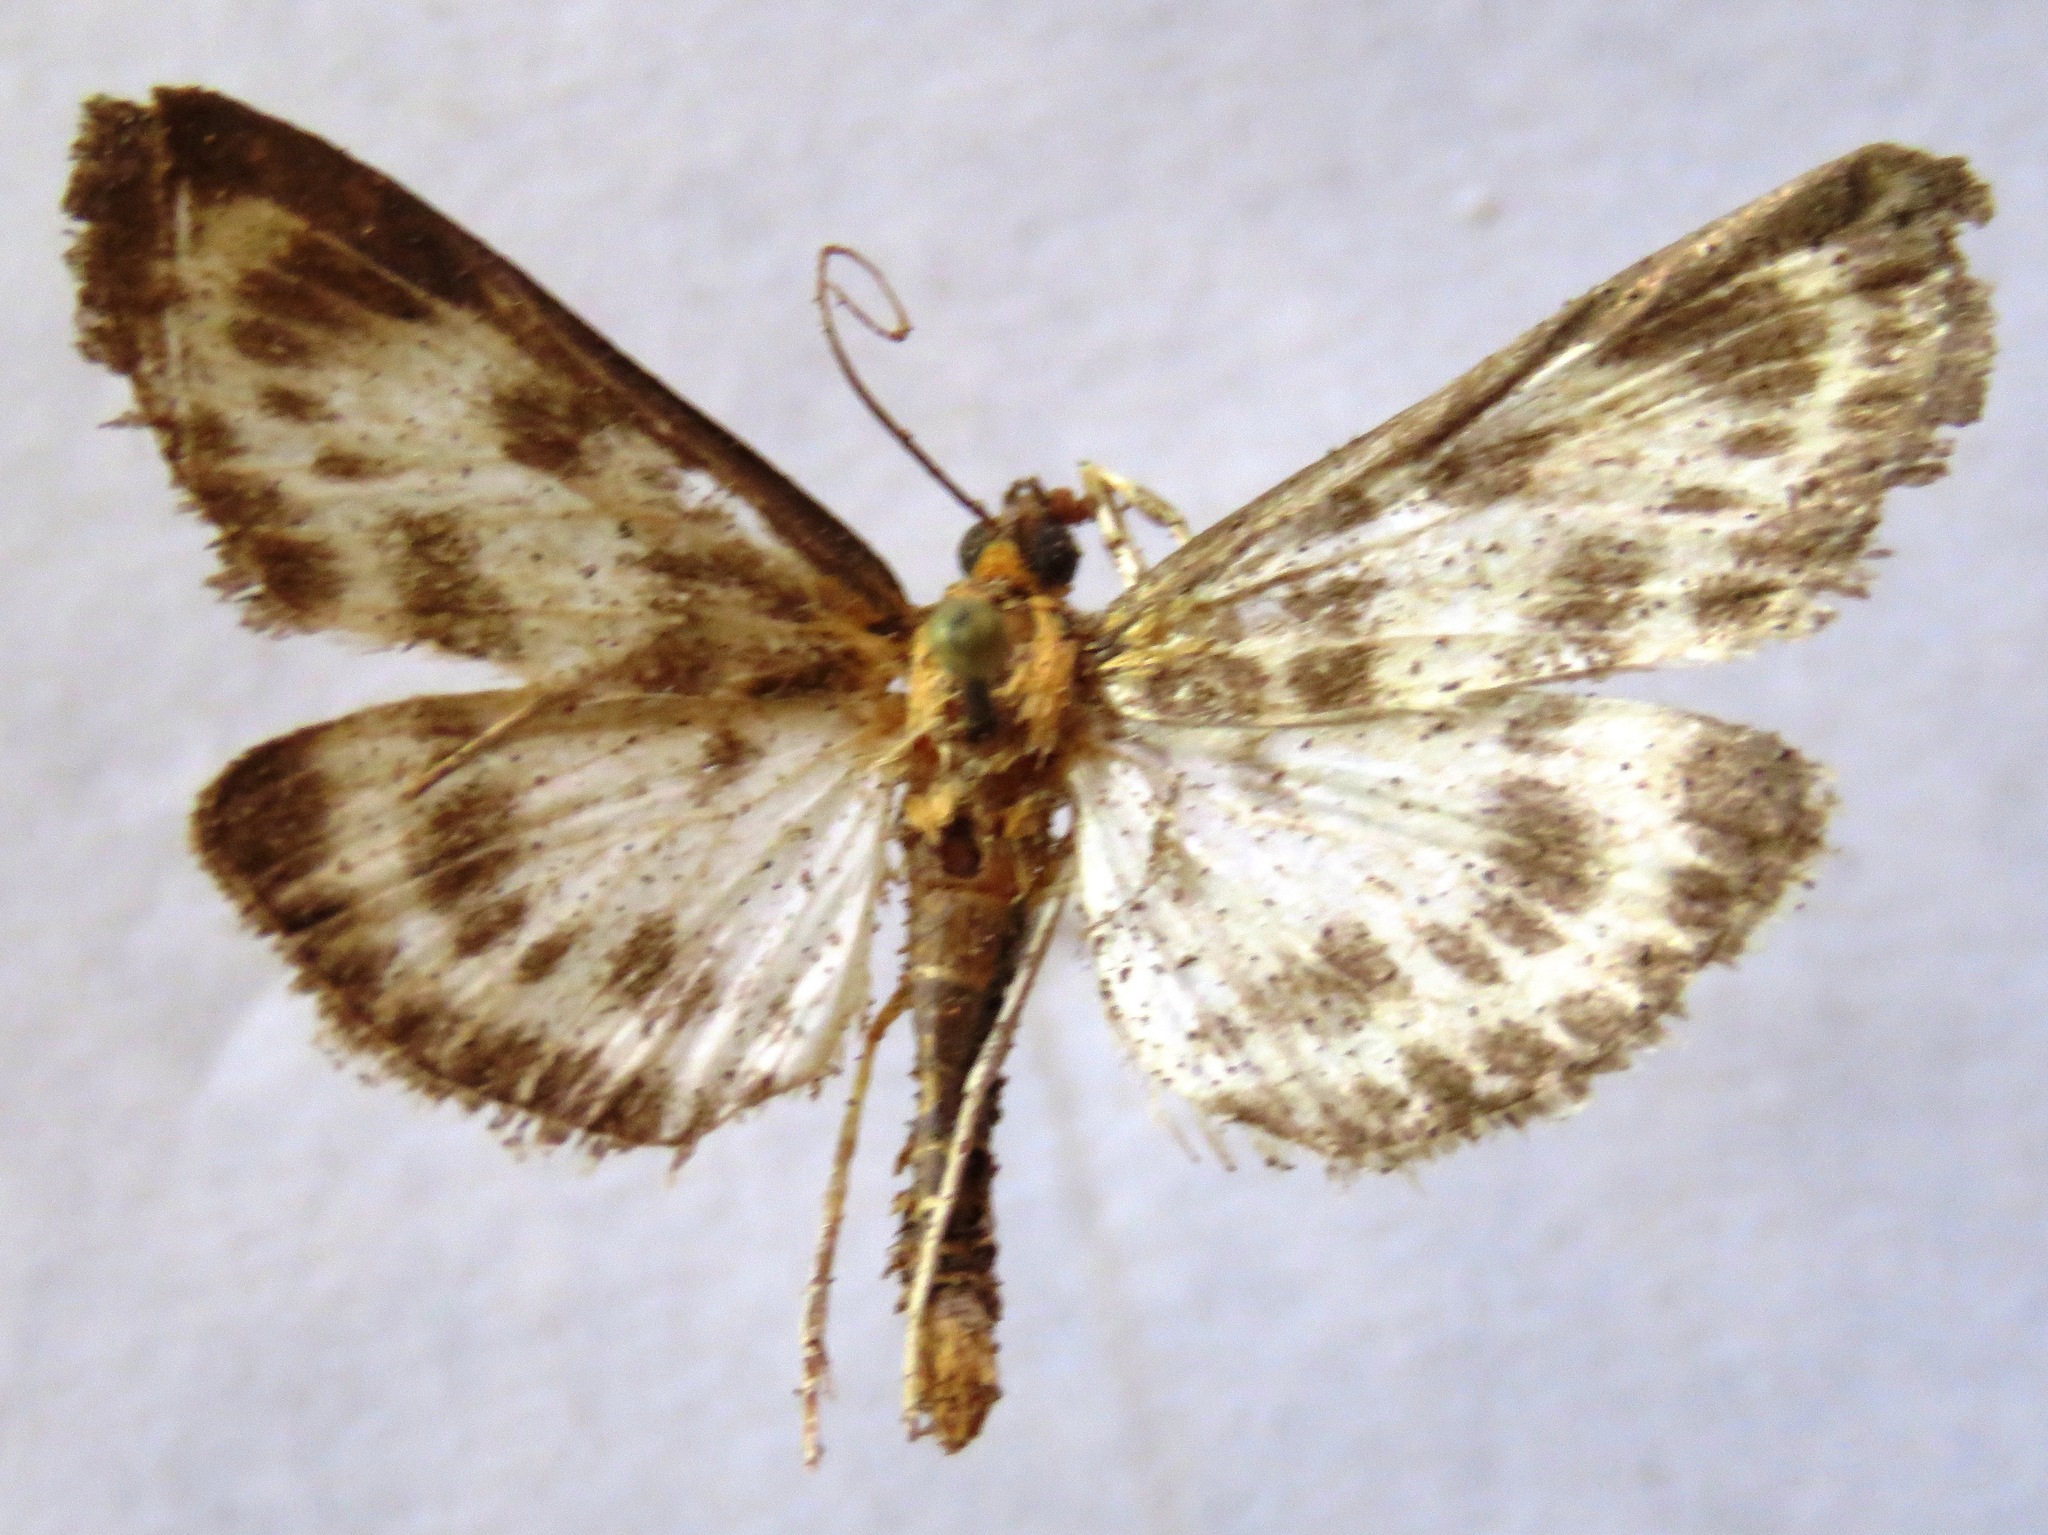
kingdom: Animalia
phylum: Arthropoda
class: Insecta
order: Lepidoptera
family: Crambidae
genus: Anania
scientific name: Anania hortulata
